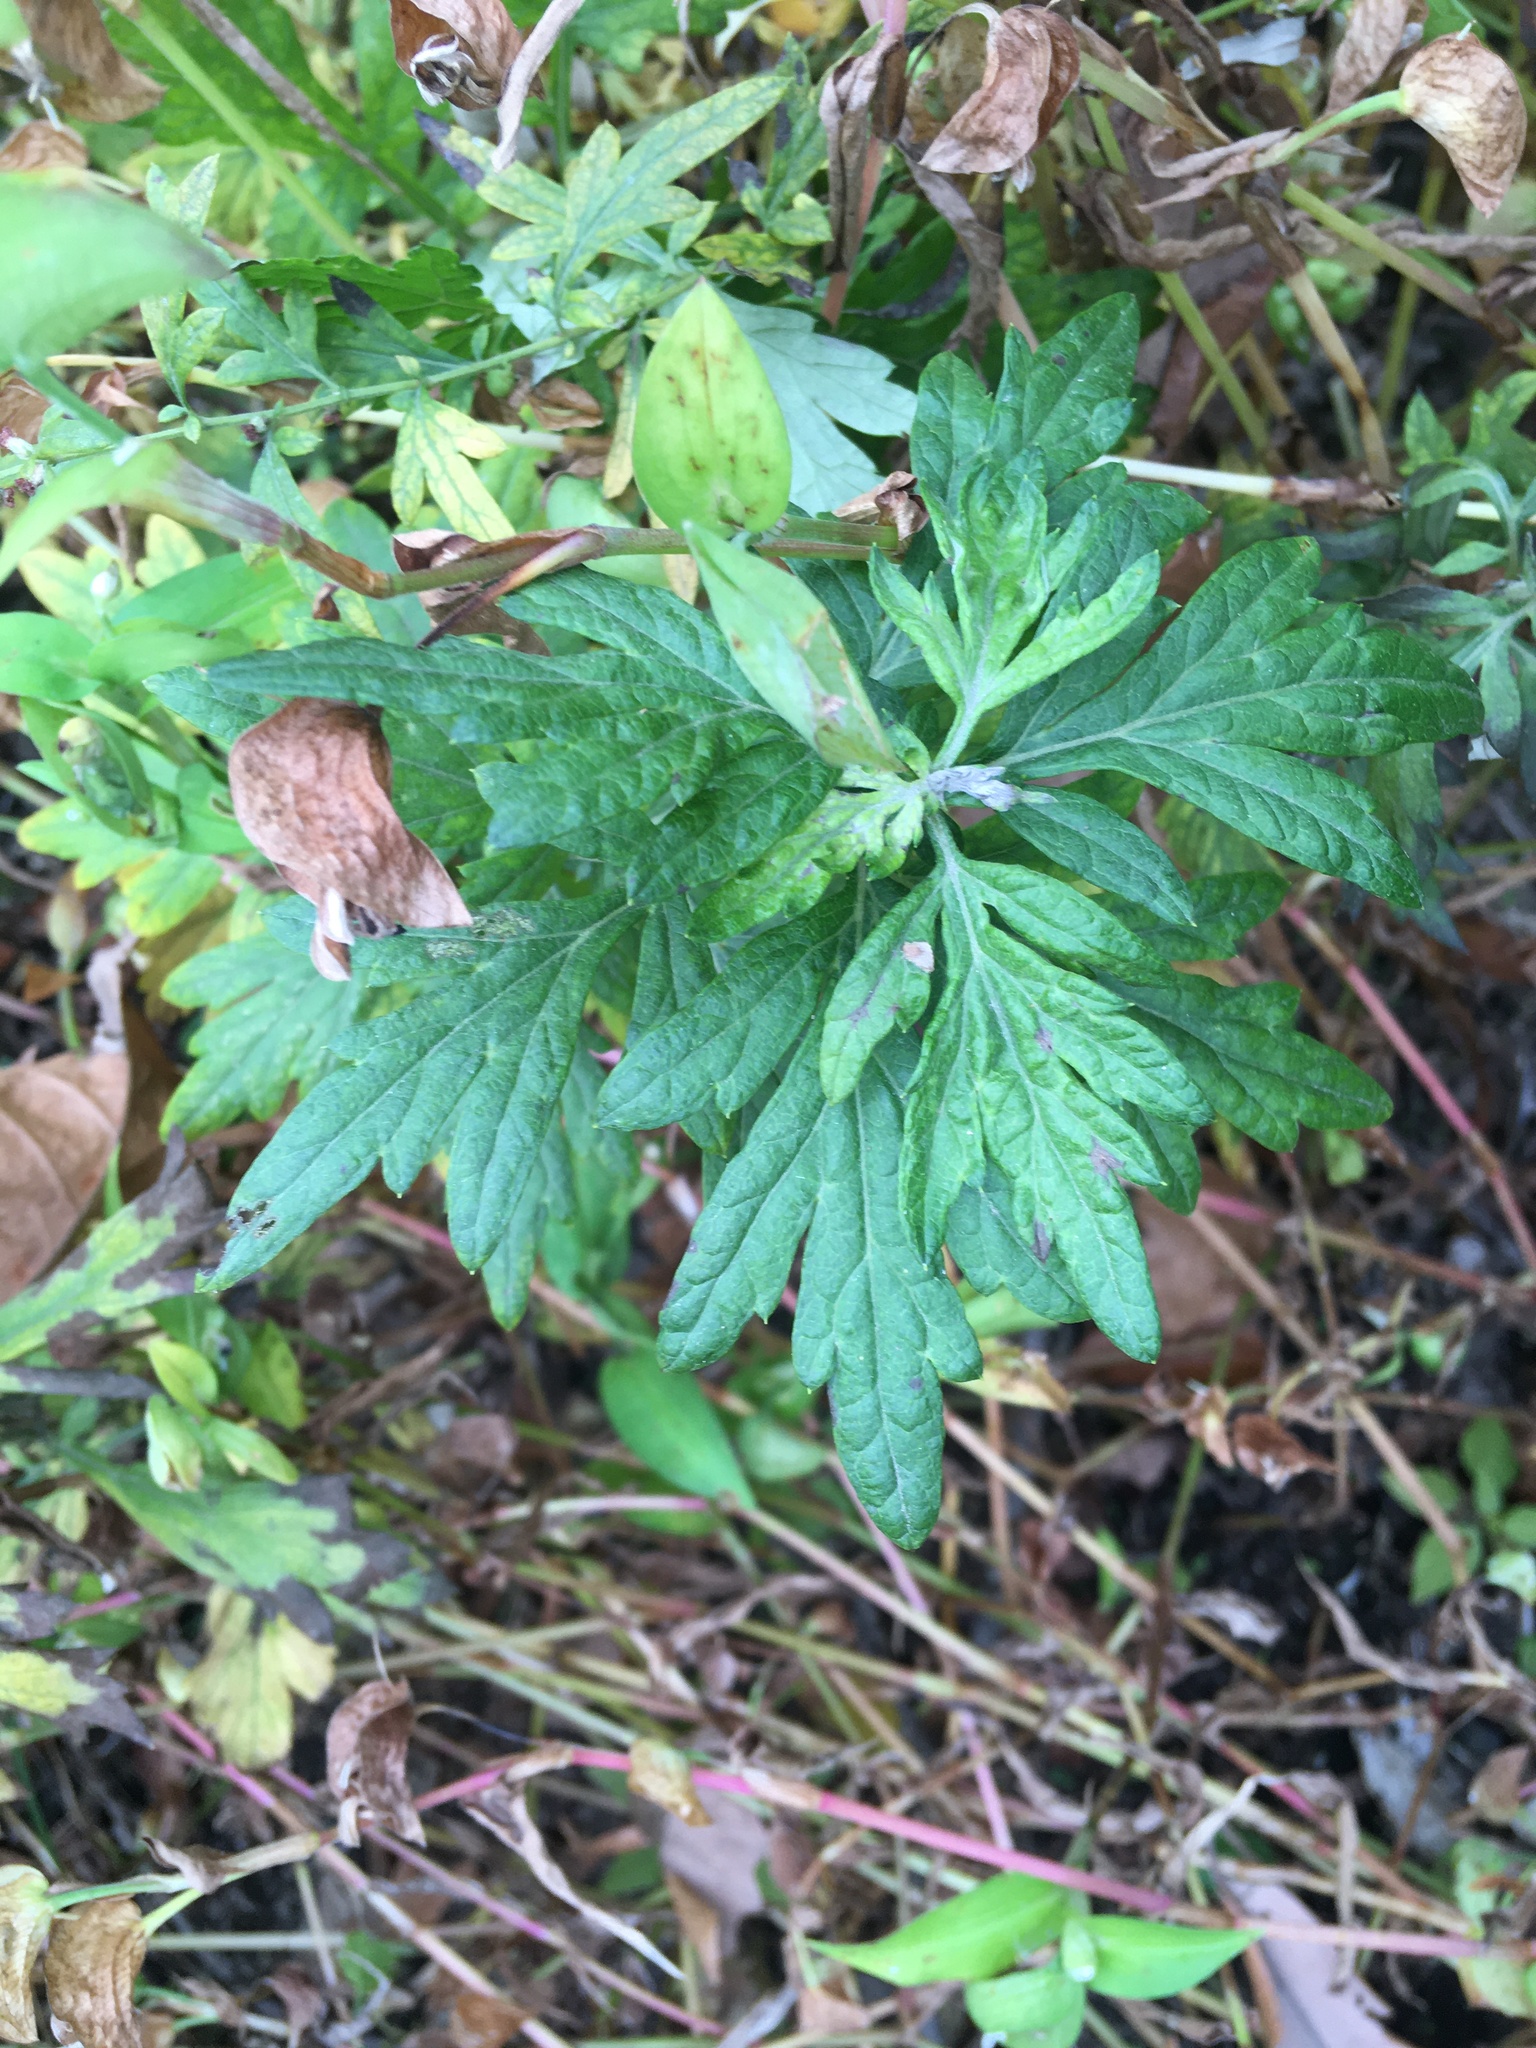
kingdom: Plantae
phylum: Tracheophyta
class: Magnoliopsida
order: Asterales
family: Asteraceae
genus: Artemisia
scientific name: Artemisia vulgaris
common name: Mugwort
